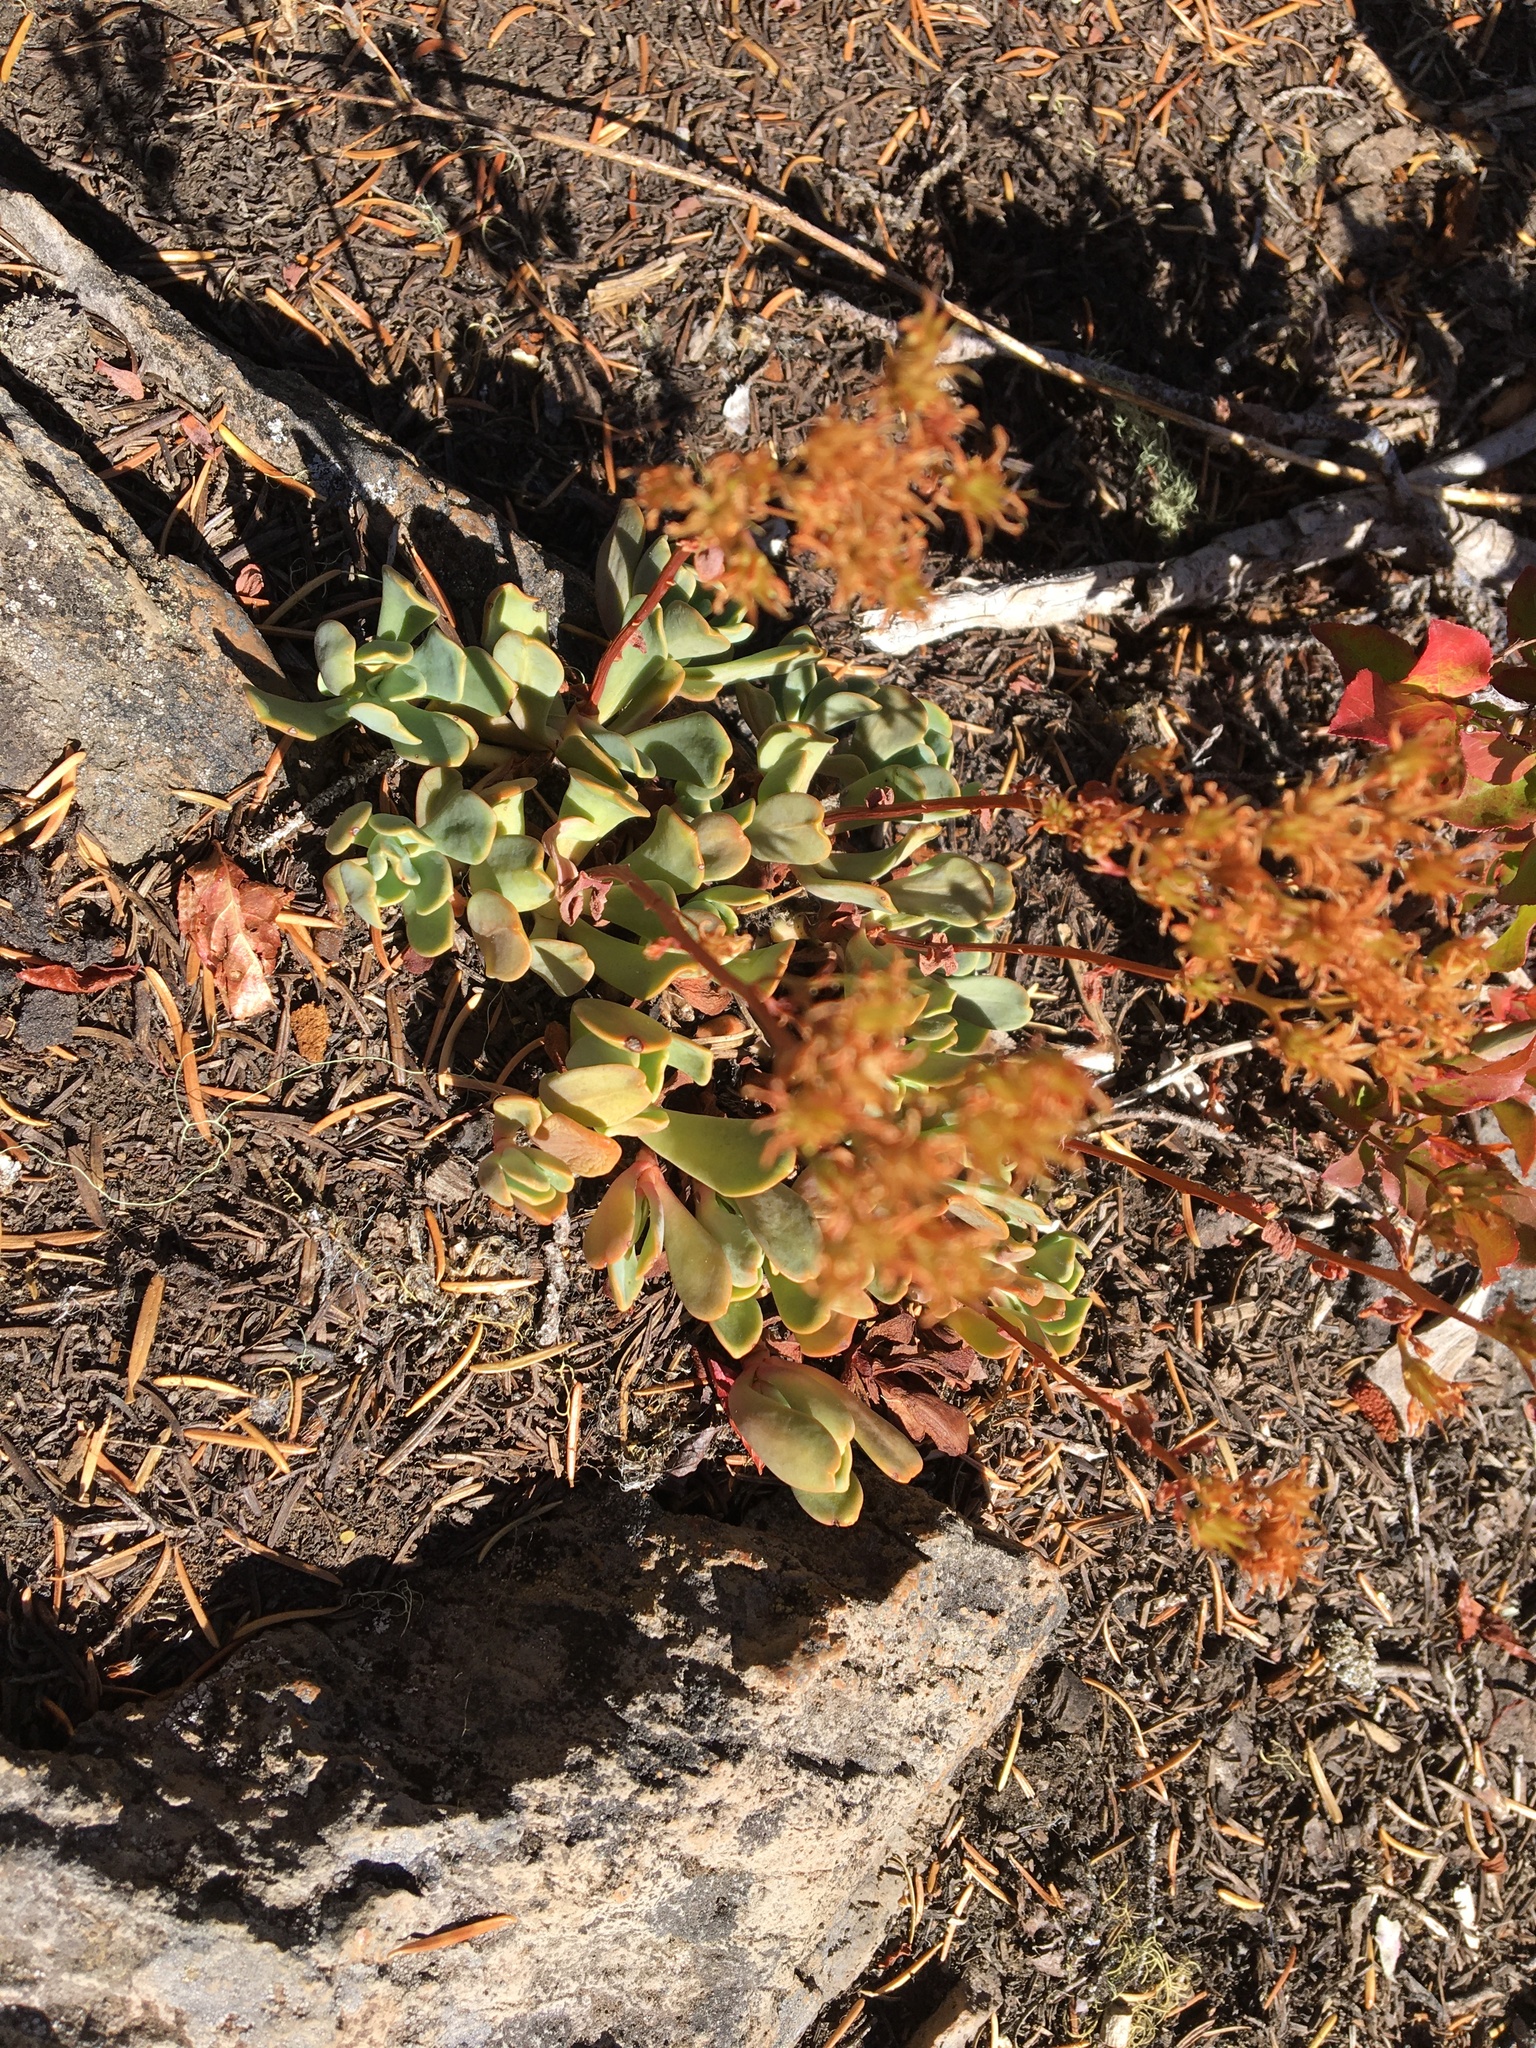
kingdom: Plantae
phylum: Tracheophyta
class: Magnoliopsida
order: Saxifragales
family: Crassulaceae
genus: Sedum
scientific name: Sedum oregonense
